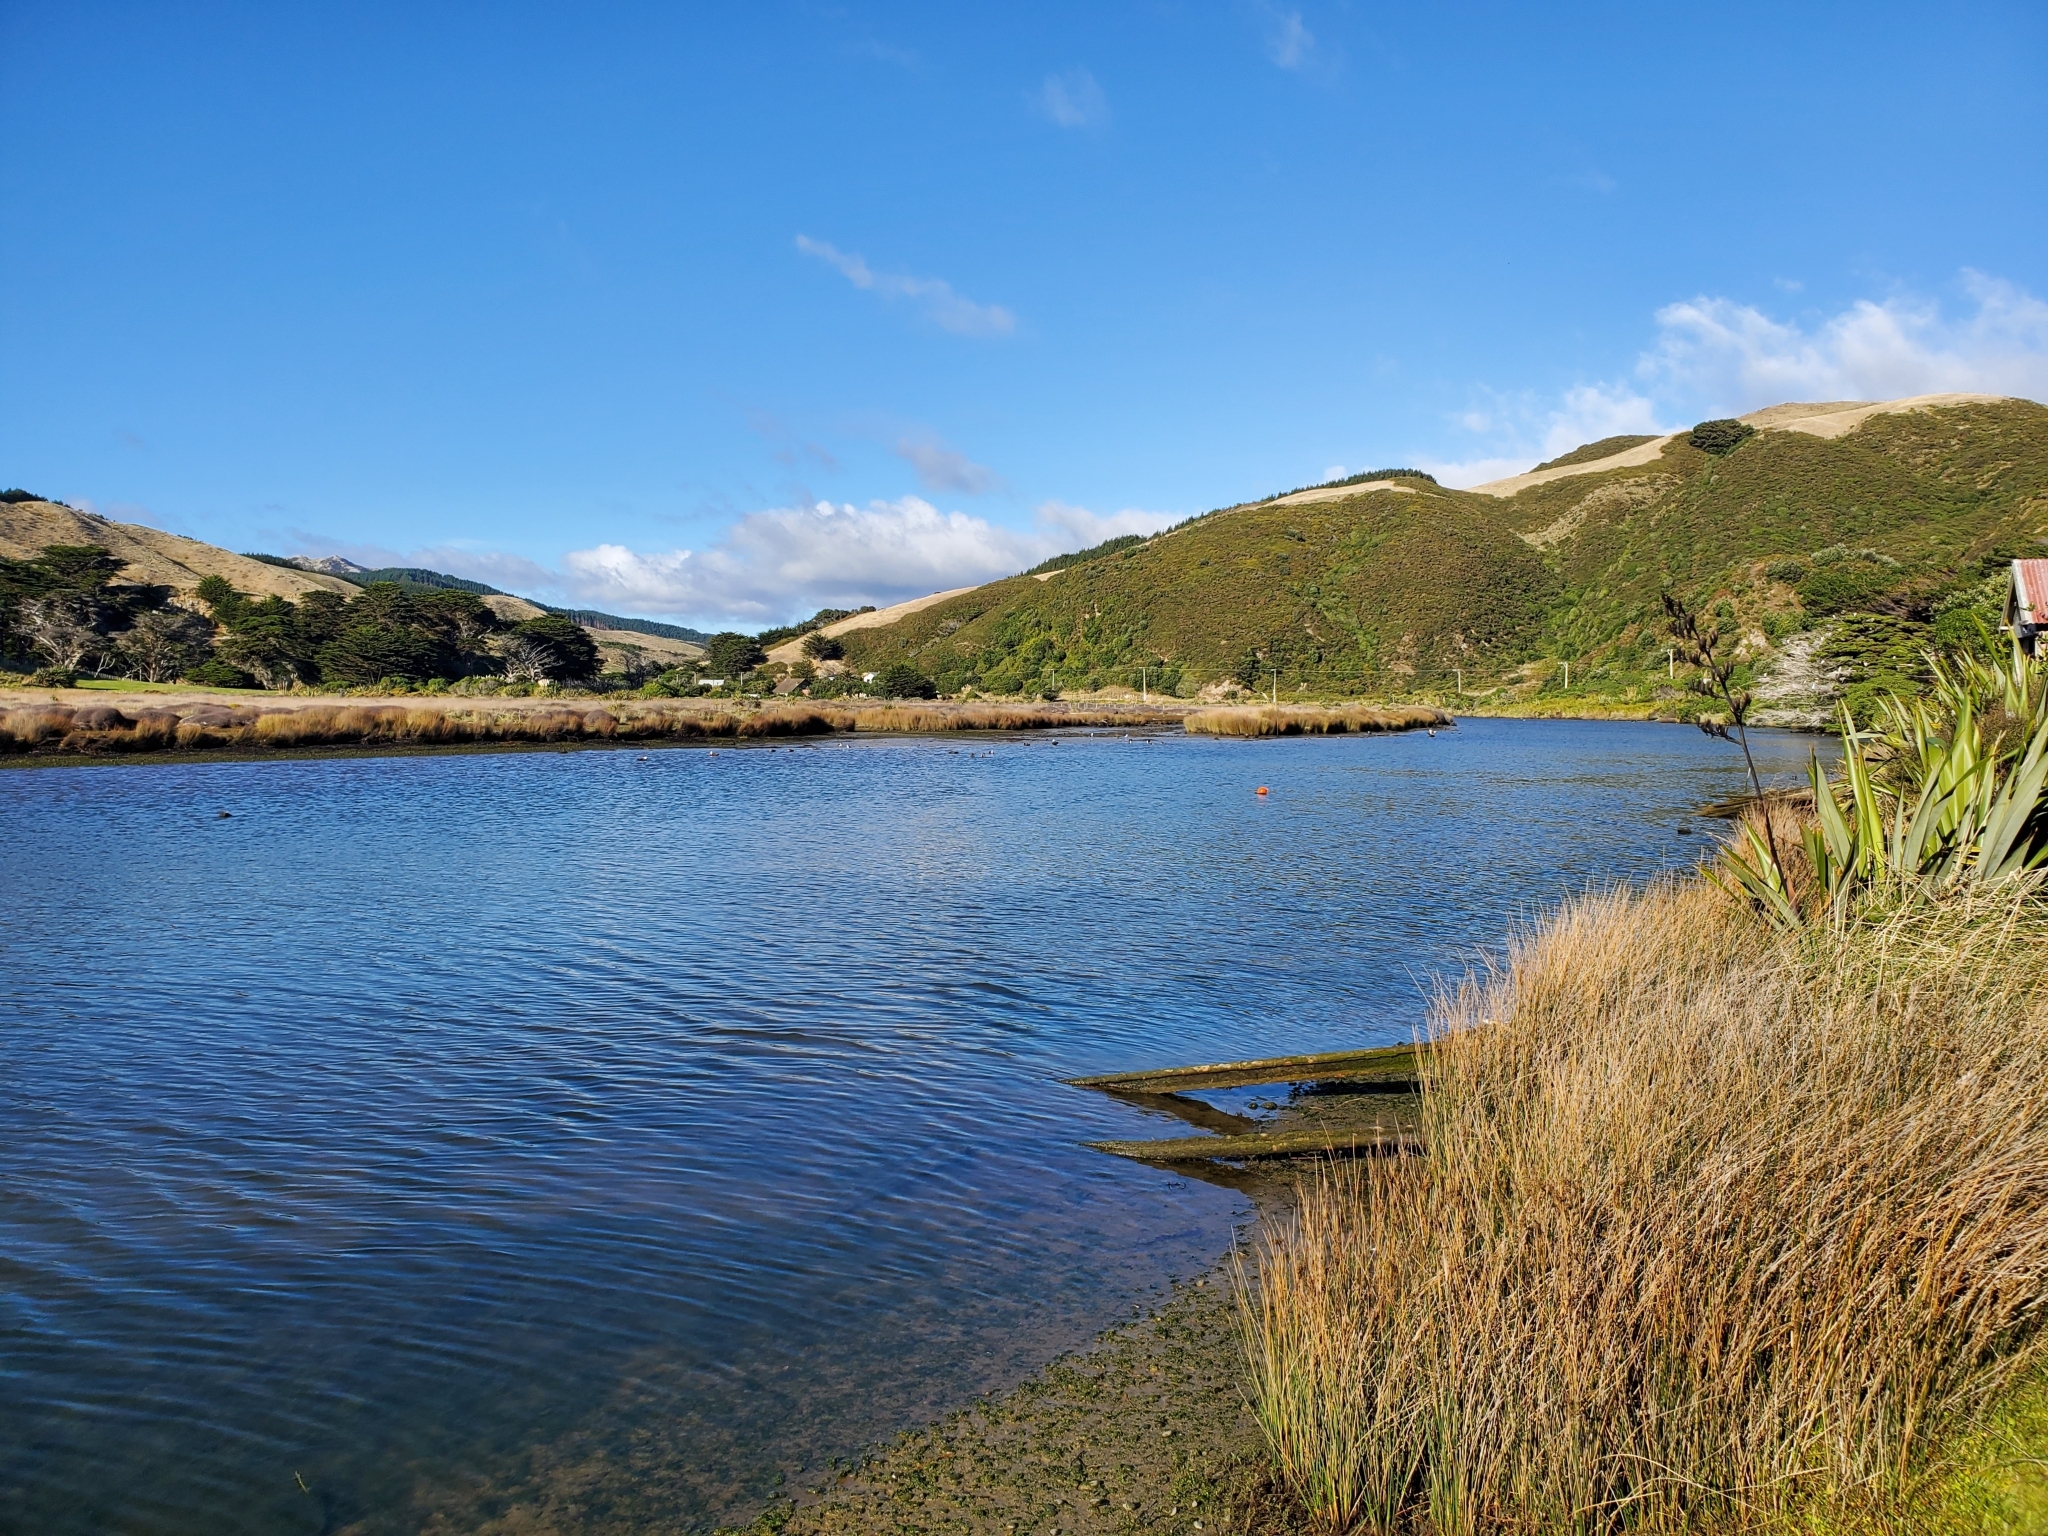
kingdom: Animalia
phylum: Chordata
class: Aves
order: Charadriiformes
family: Charadriidae
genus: Vanellus
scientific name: Vanellus miles
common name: Masked lapwing
